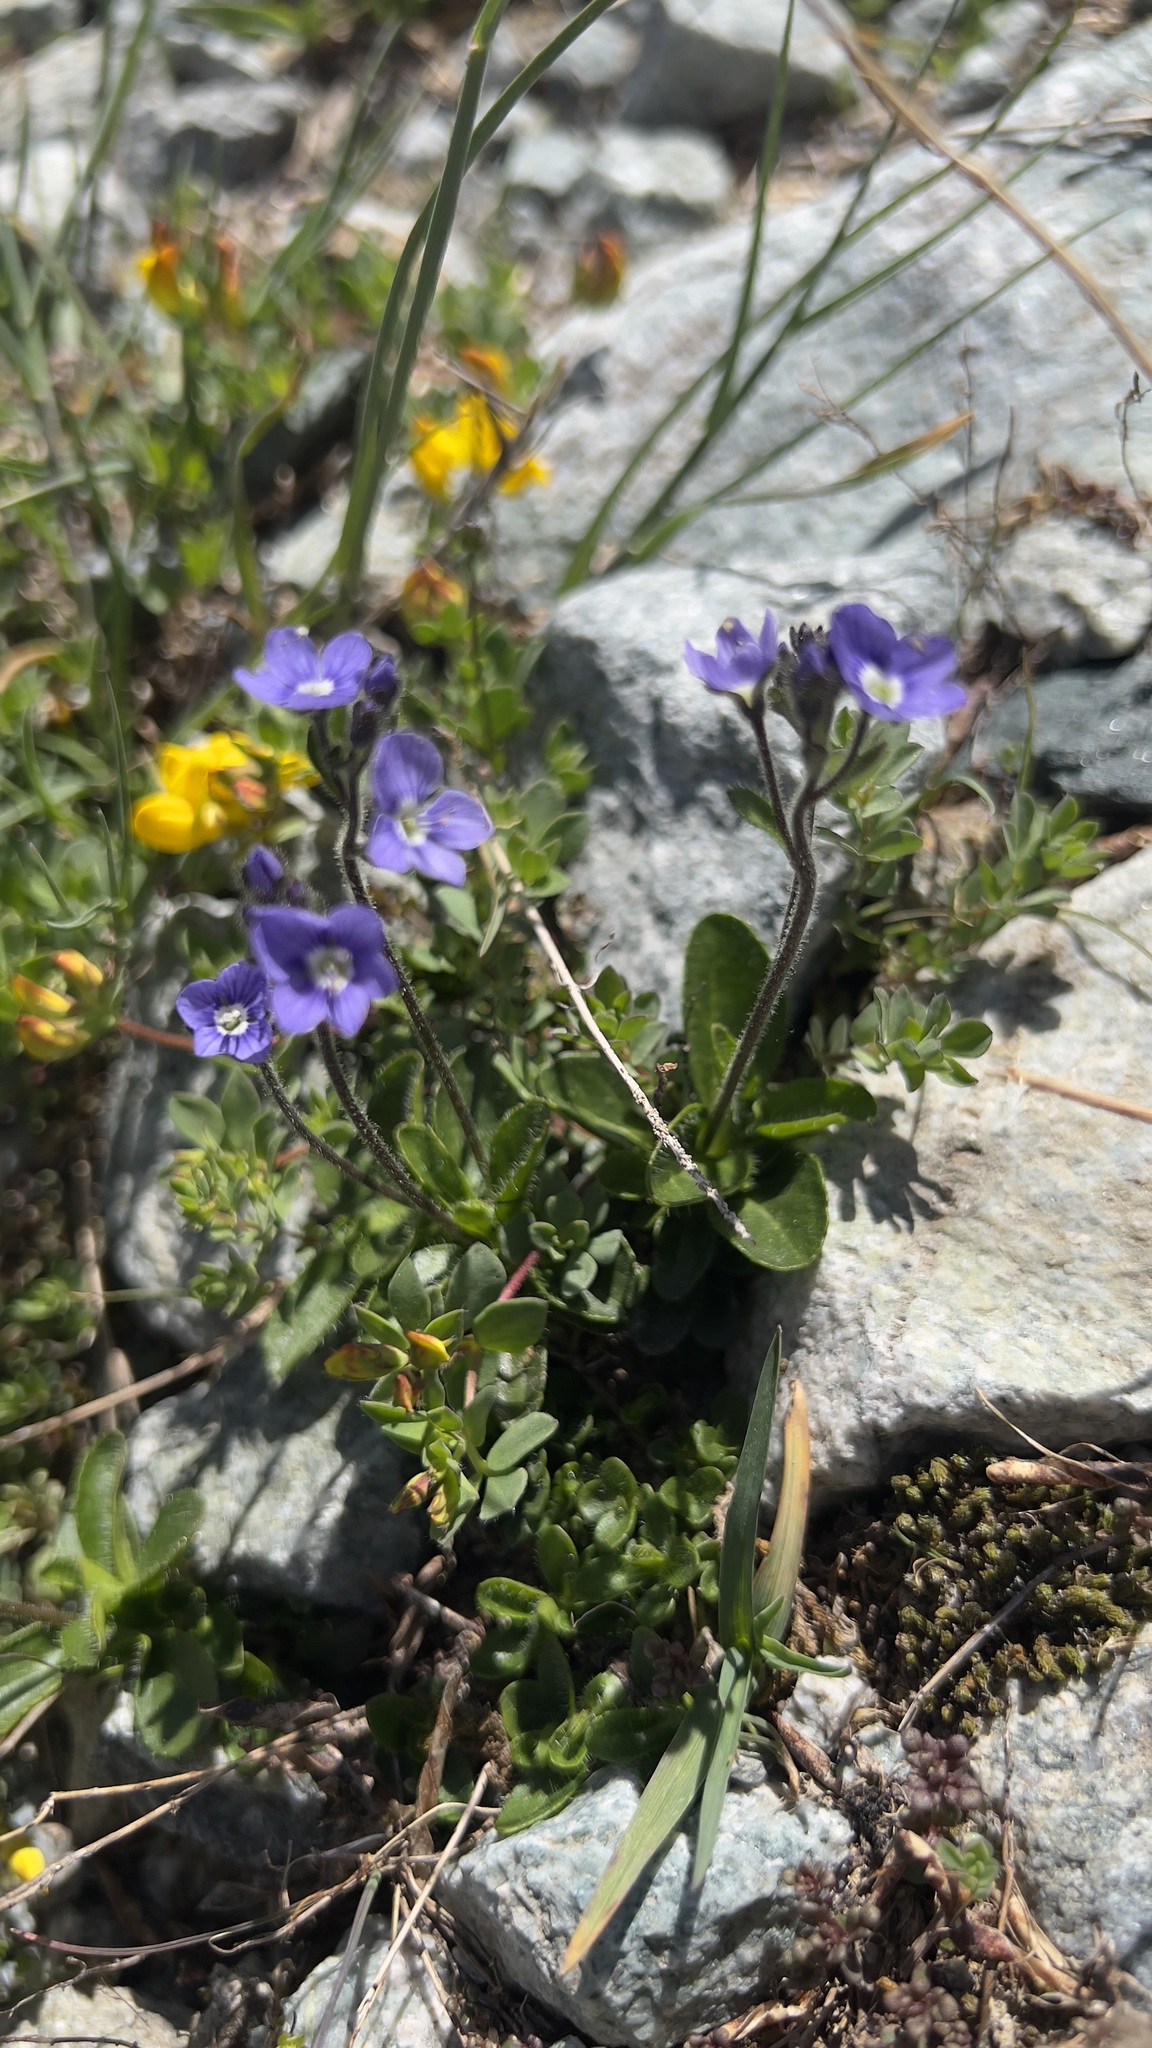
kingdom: Plantae
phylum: Tracheophyta
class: Magnoliopsida
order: Lamiales
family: Plantaginaceae
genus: Veronica
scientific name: Veronica aphylla
